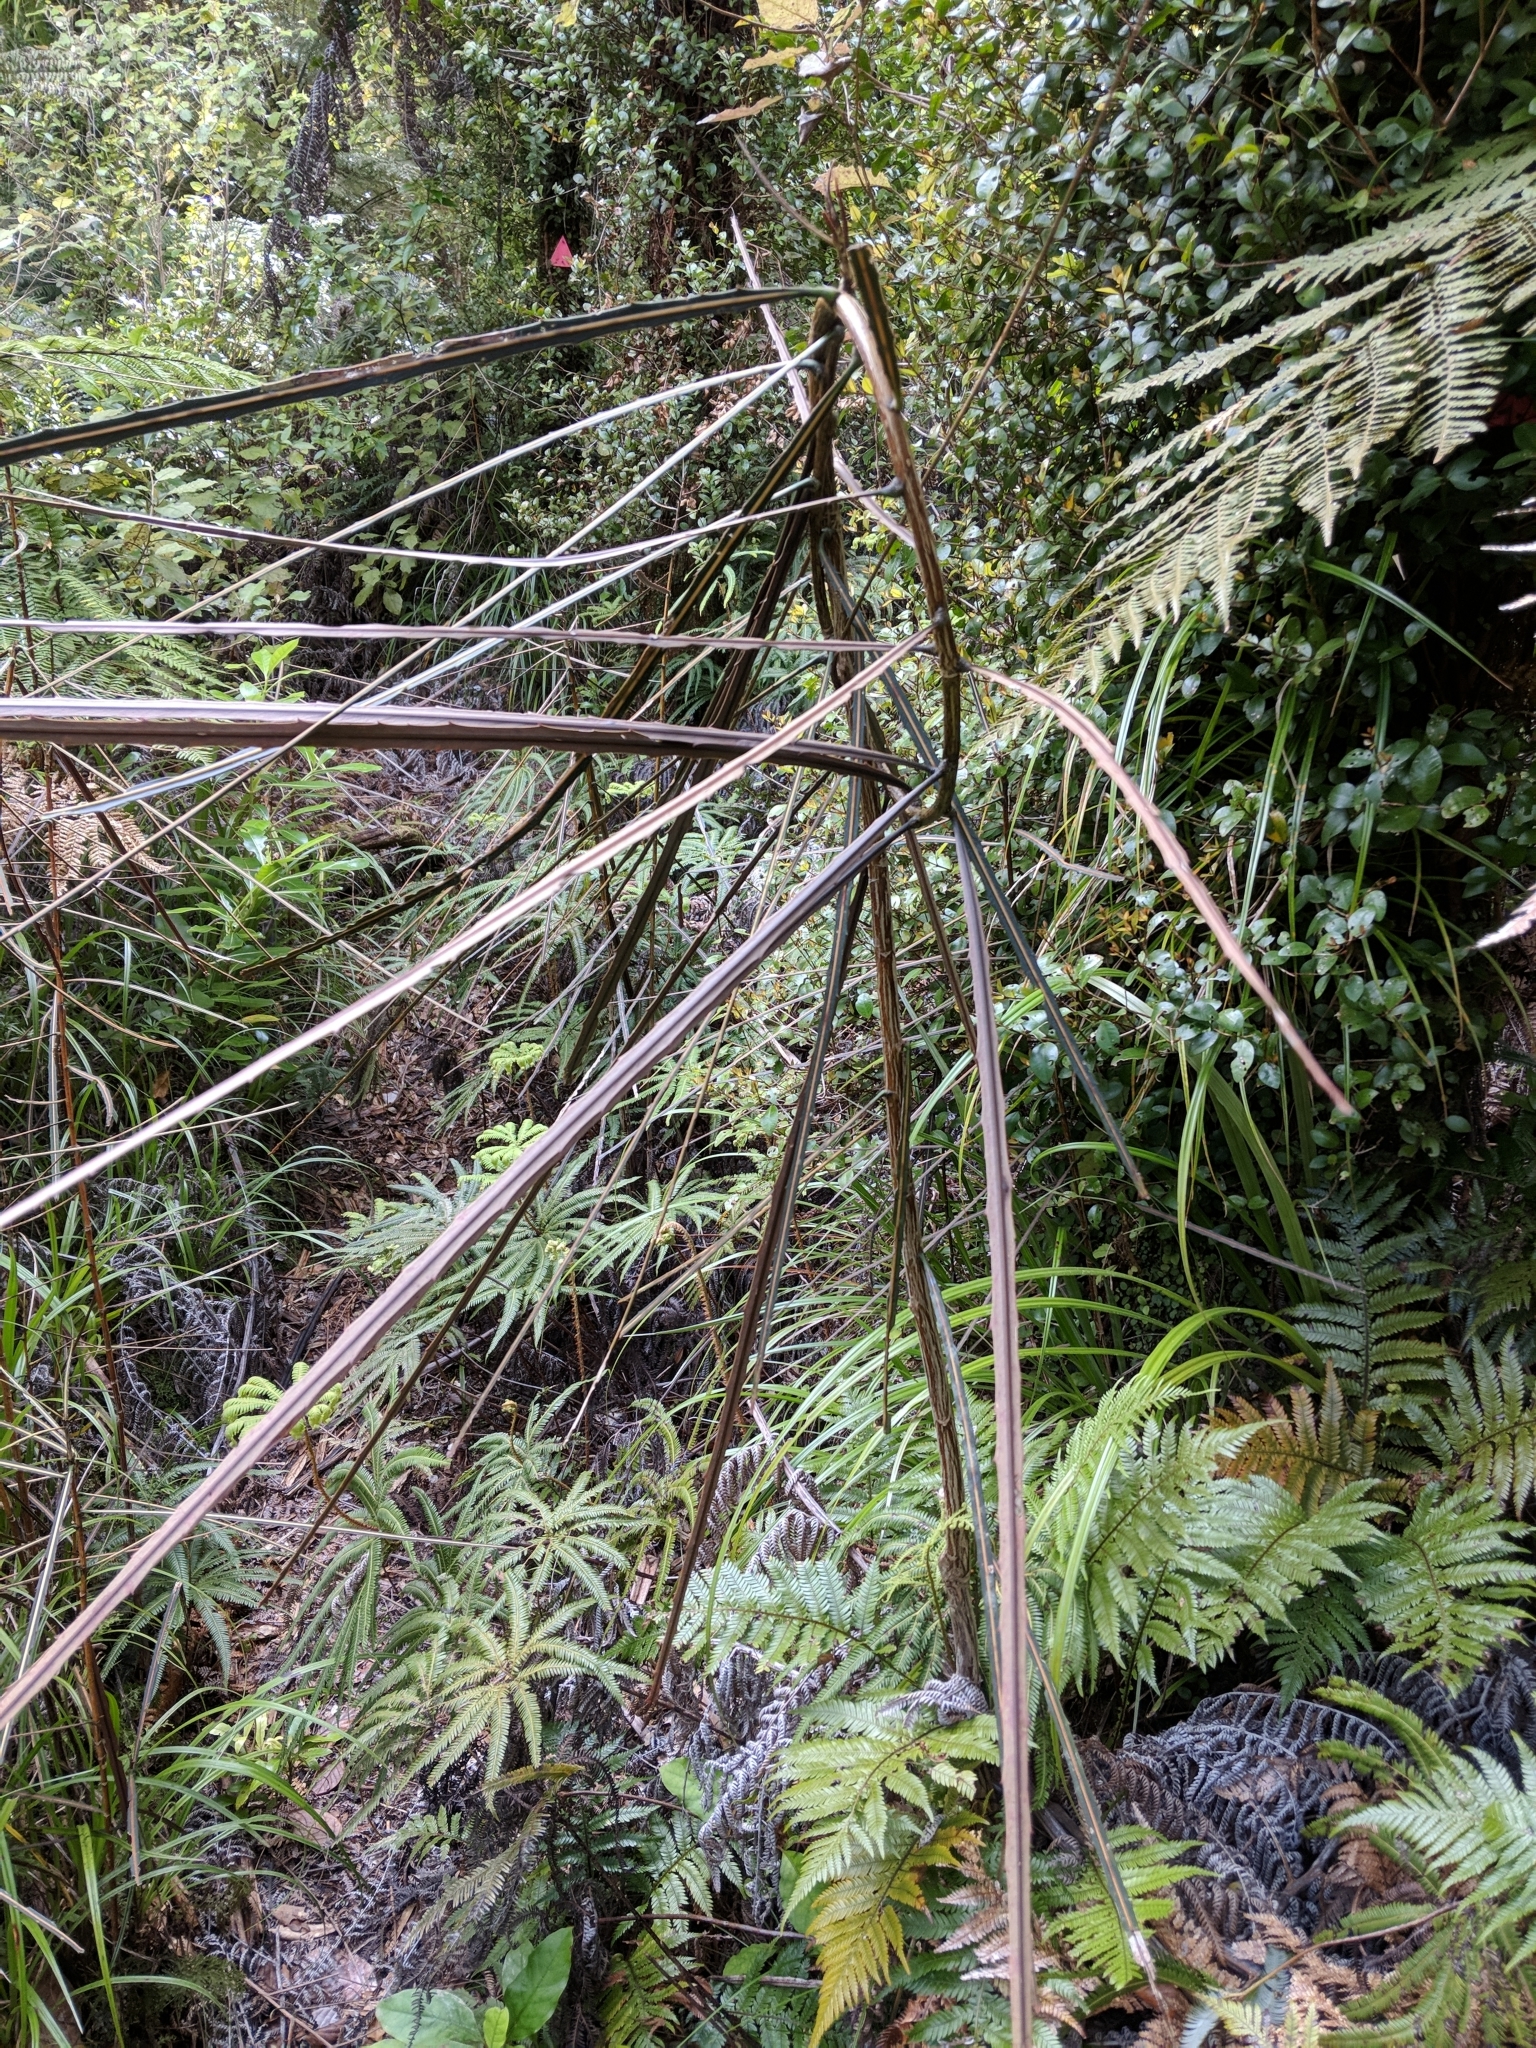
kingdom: Plantae
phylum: Tracheophyta
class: Magnoliopsida
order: Apiales
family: Araliaceae
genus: Pseudopanax
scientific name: Pseudopanax crassifolius
